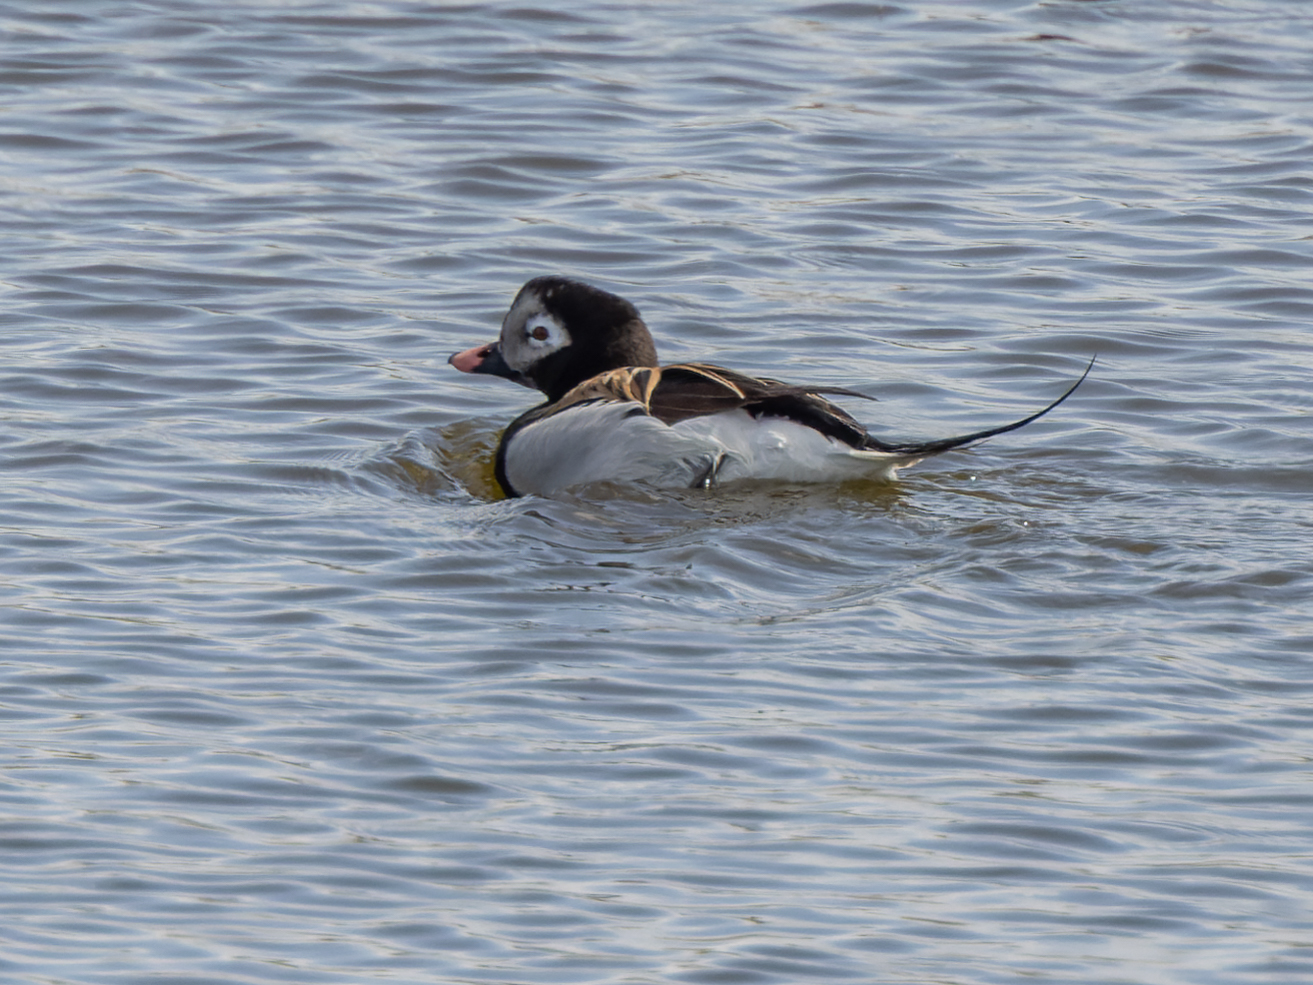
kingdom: Animalia
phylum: Chordata
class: Aves
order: Anseriformes
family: Anatidae
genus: Clangula
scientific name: Clangula hyemalis
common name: Long-tailed duck
